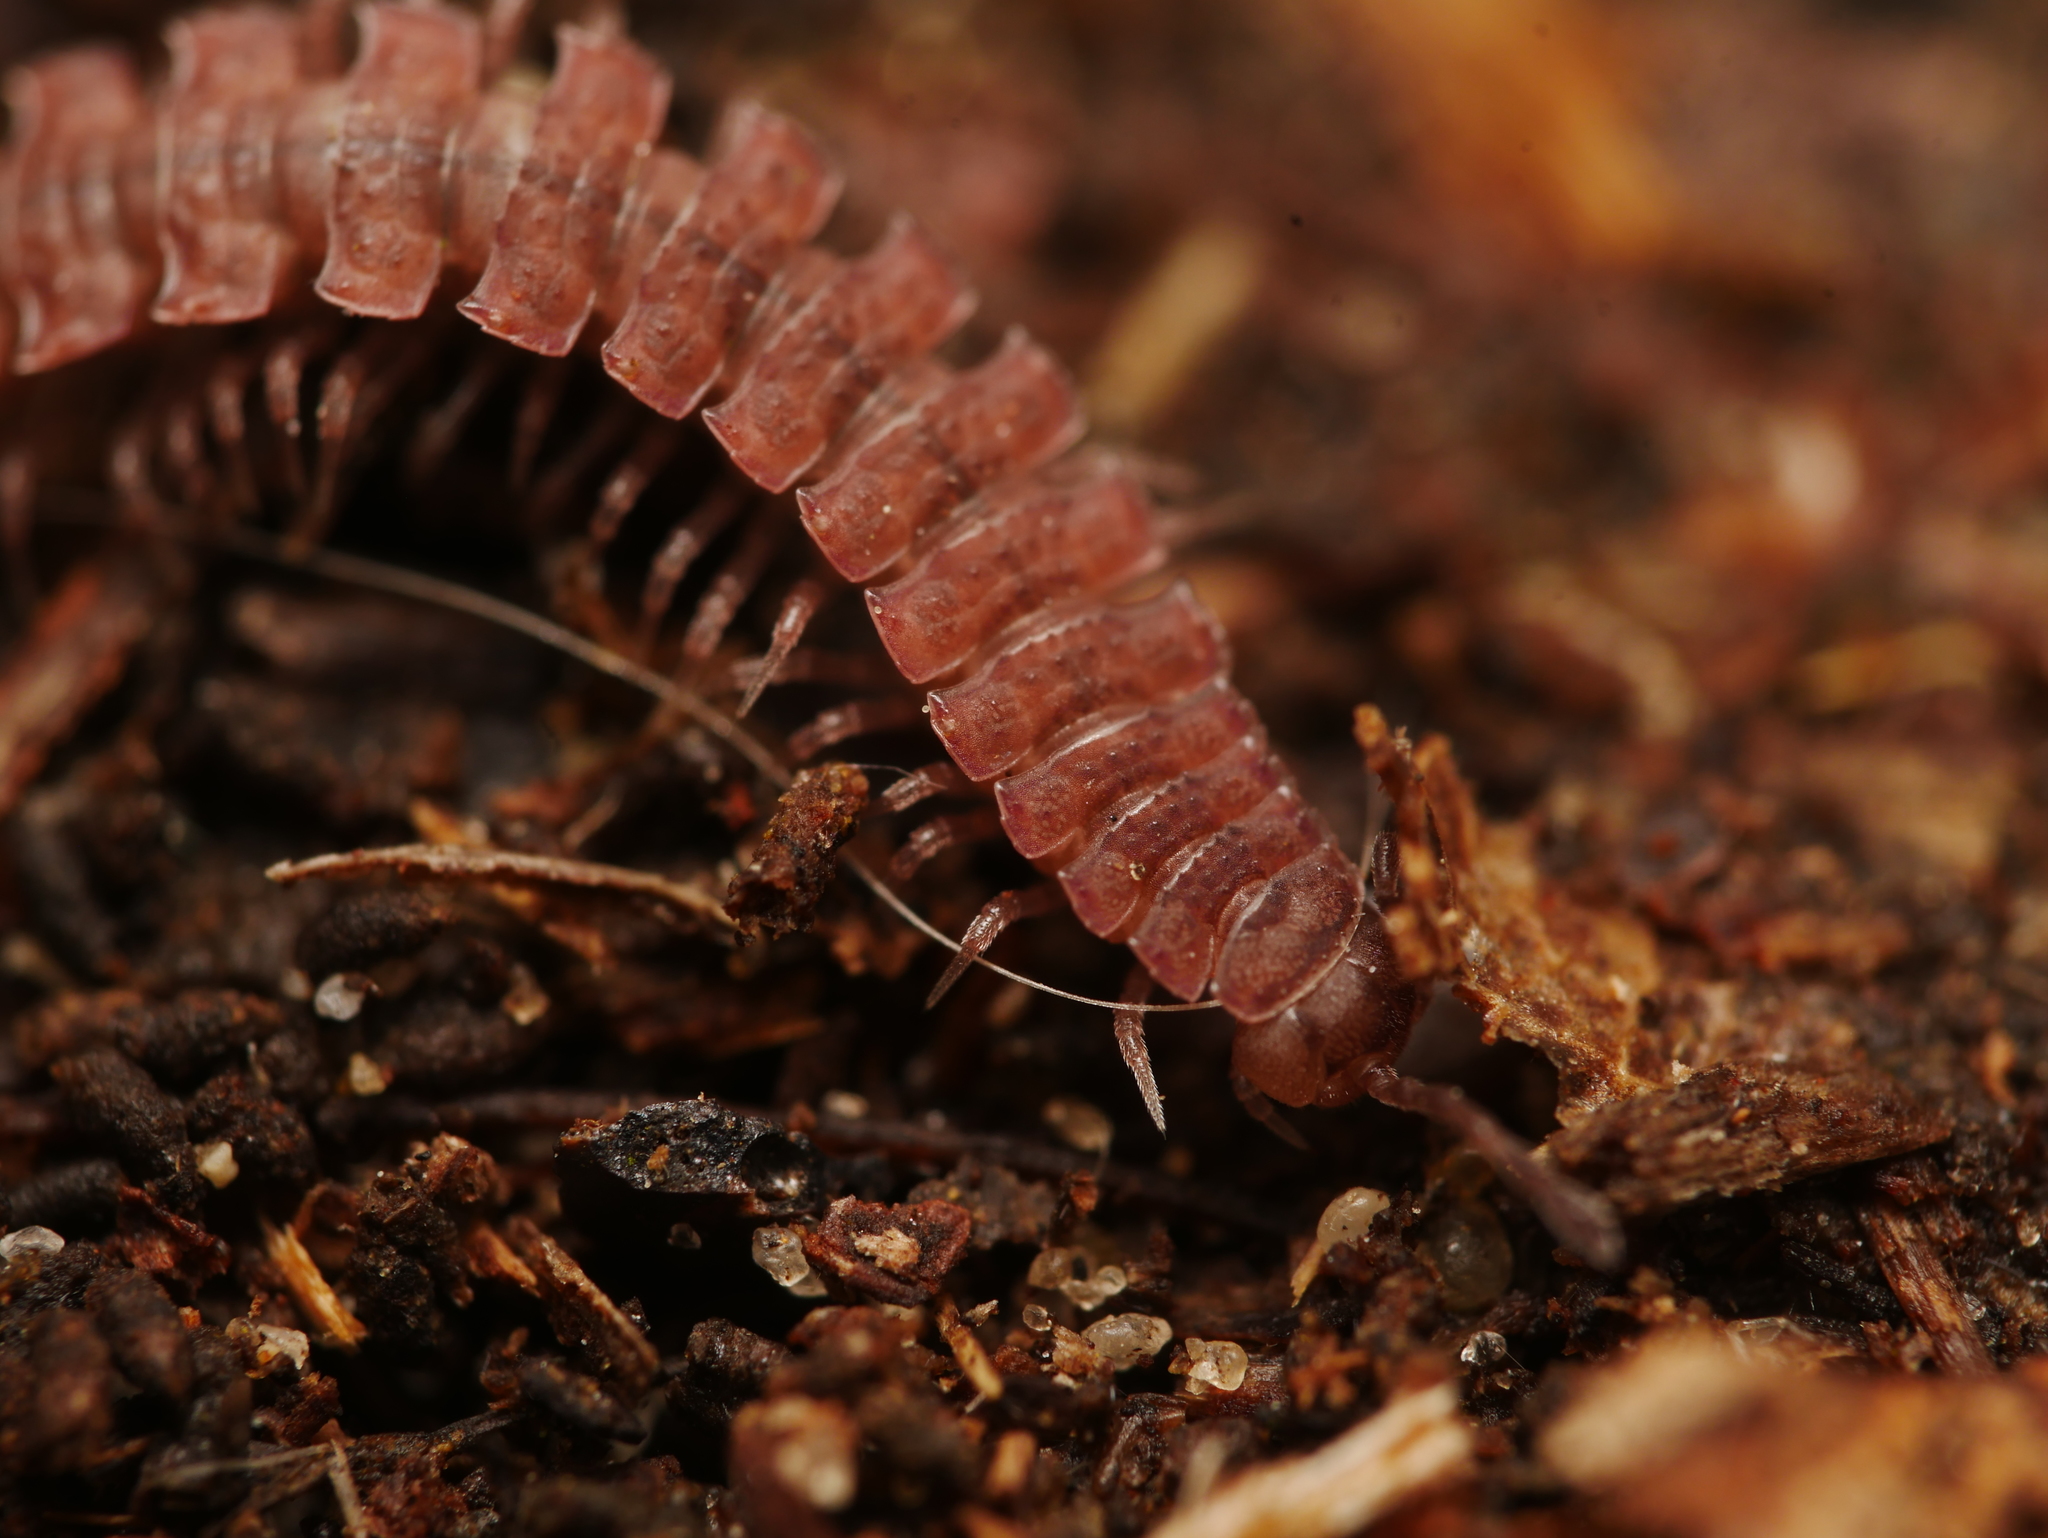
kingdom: Animalia
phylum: Arthropoda
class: Diplopoda
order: Polydesmida
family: Polydesmidae
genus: Polydesmus
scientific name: Polydesmus angustus
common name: Flat millipede
